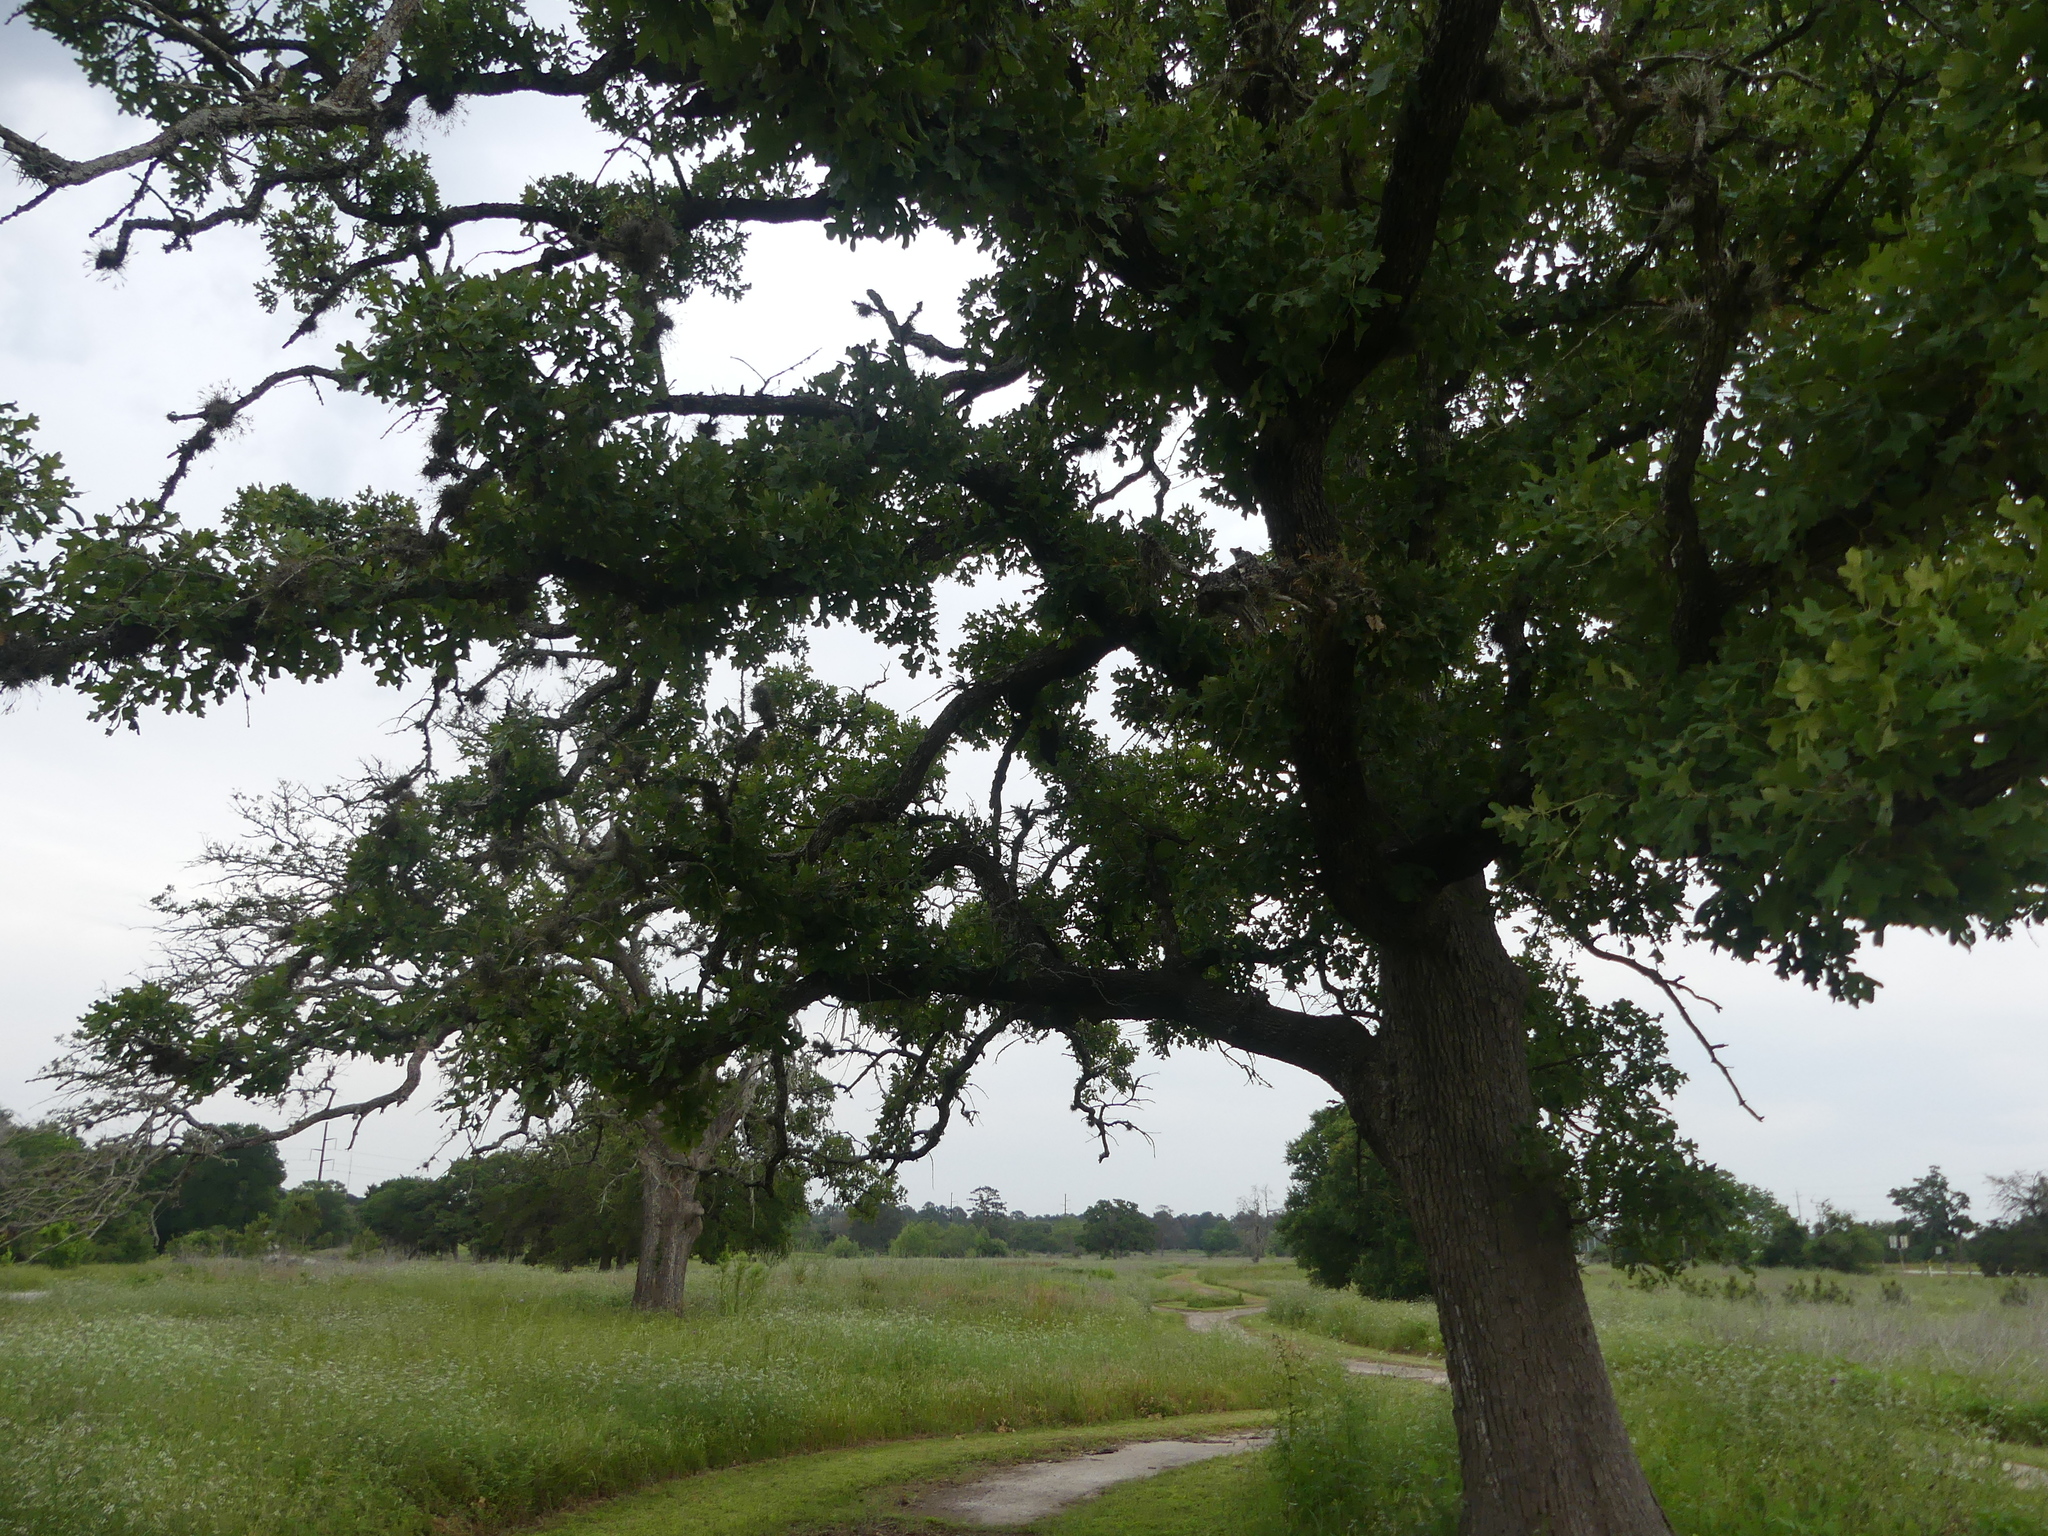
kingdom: Plantae
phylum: Tracheophyta
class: Magnoliopsida
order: Fagales
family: Fagaceae
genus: Quercus
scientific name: Quercus stellata
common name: Post oak
